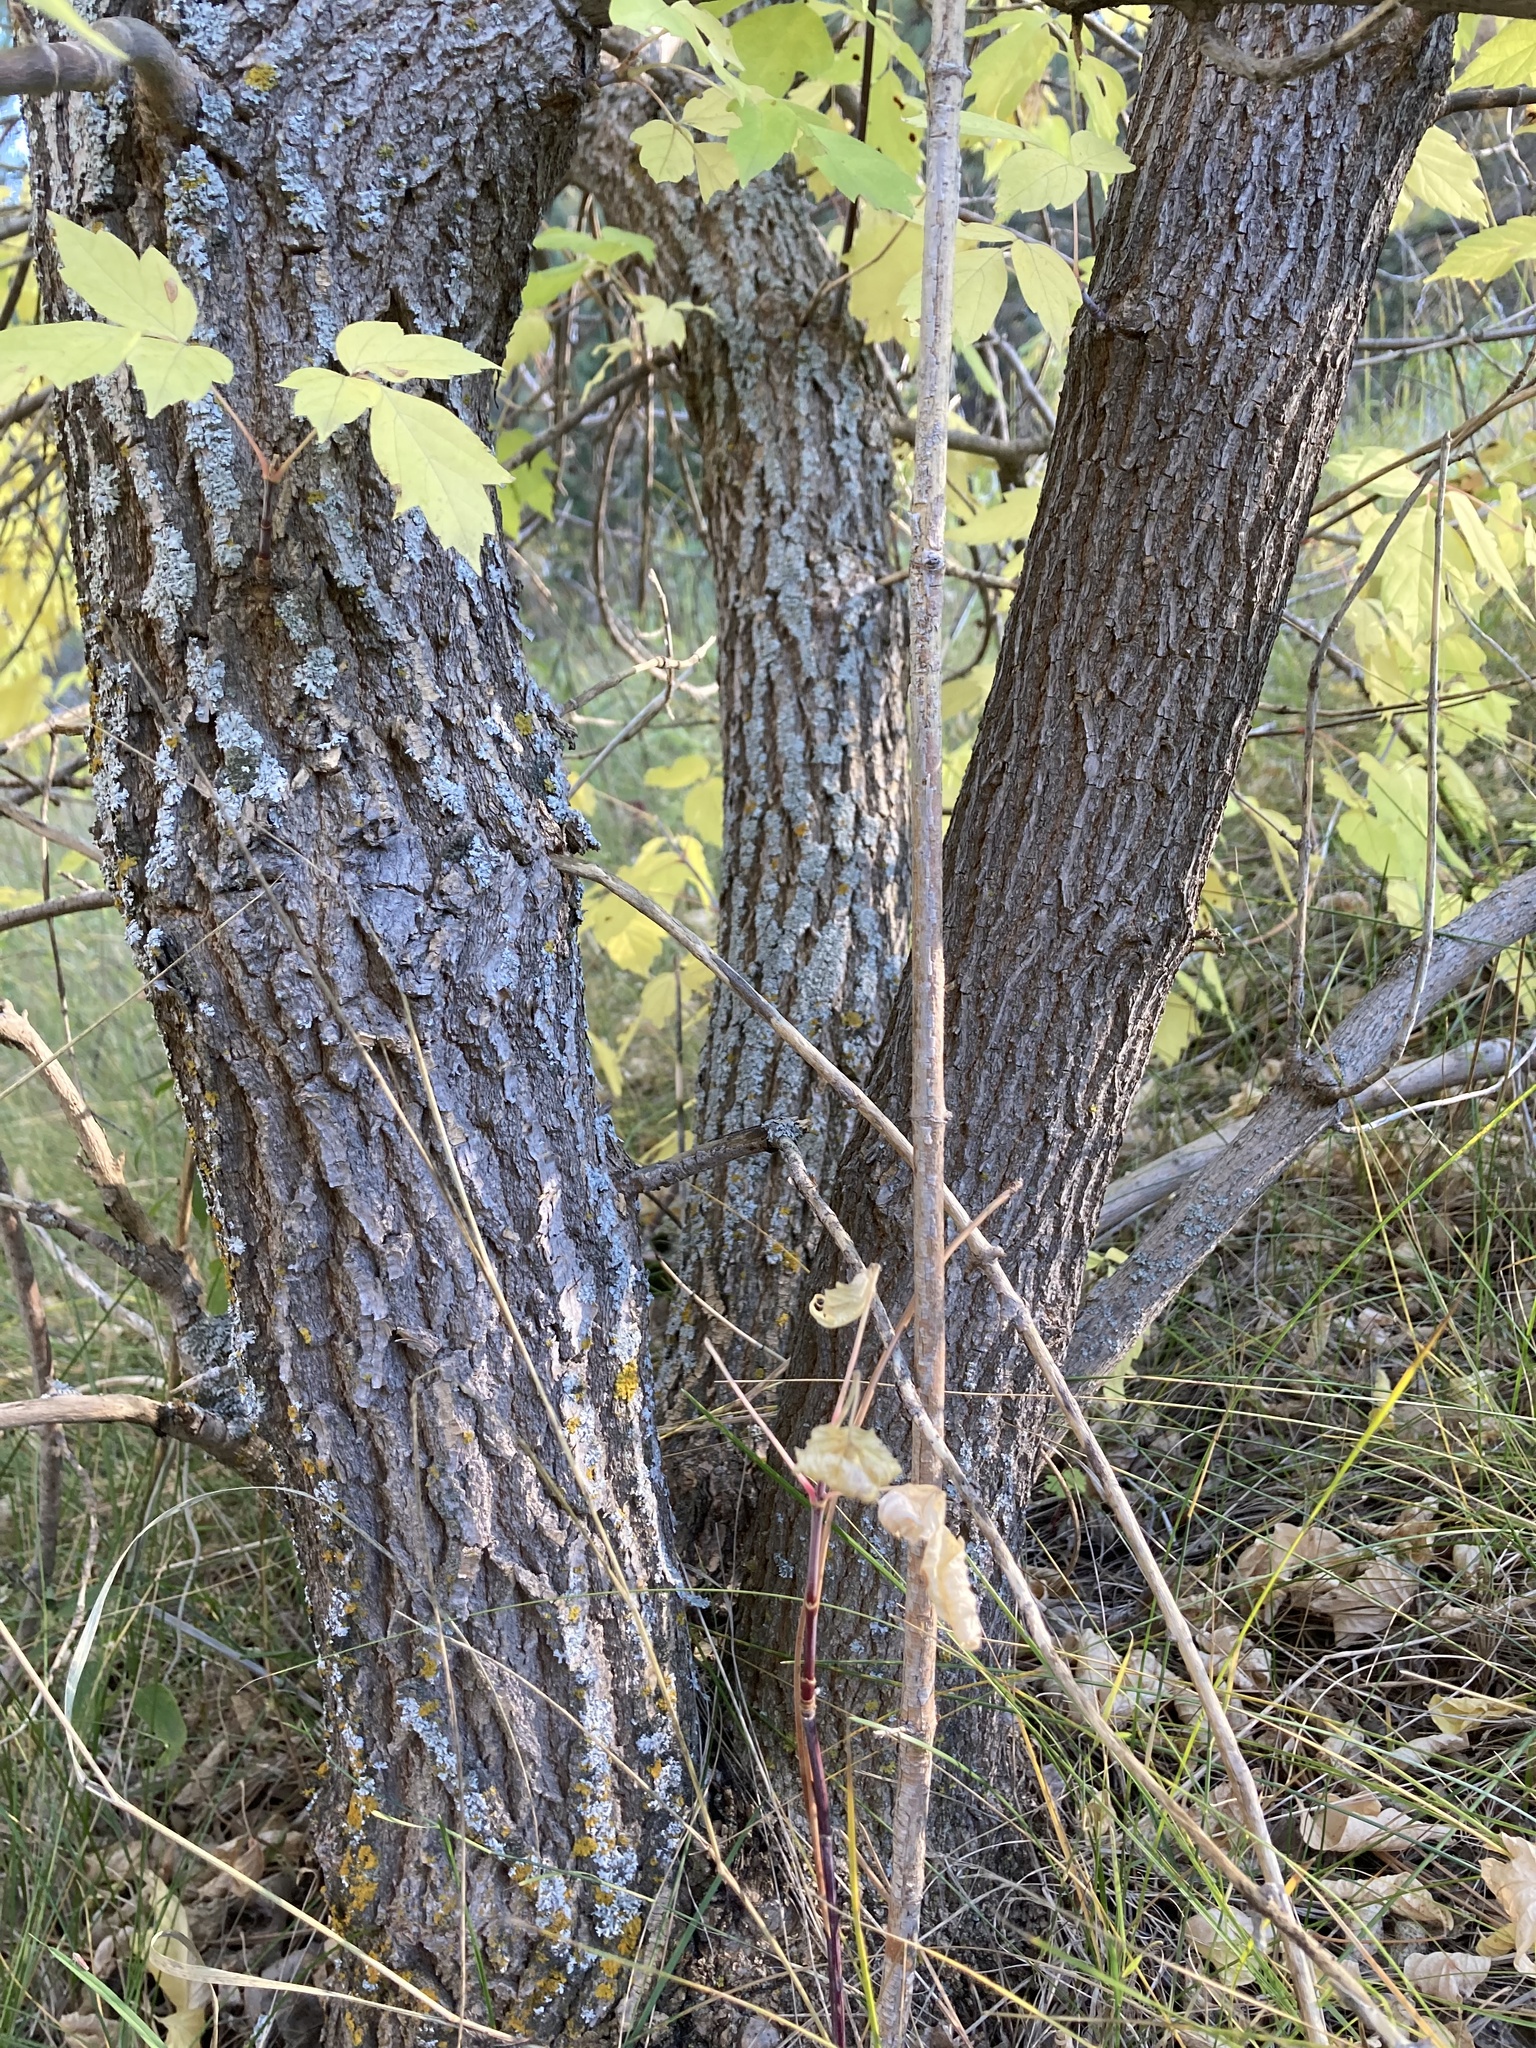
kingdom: Plantae
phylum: Tracheophyta
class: Magnoliopsida
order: Sapindales
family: Sapindaceae
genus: Acer
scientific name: Acer negundo
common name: Ashleaf maple
